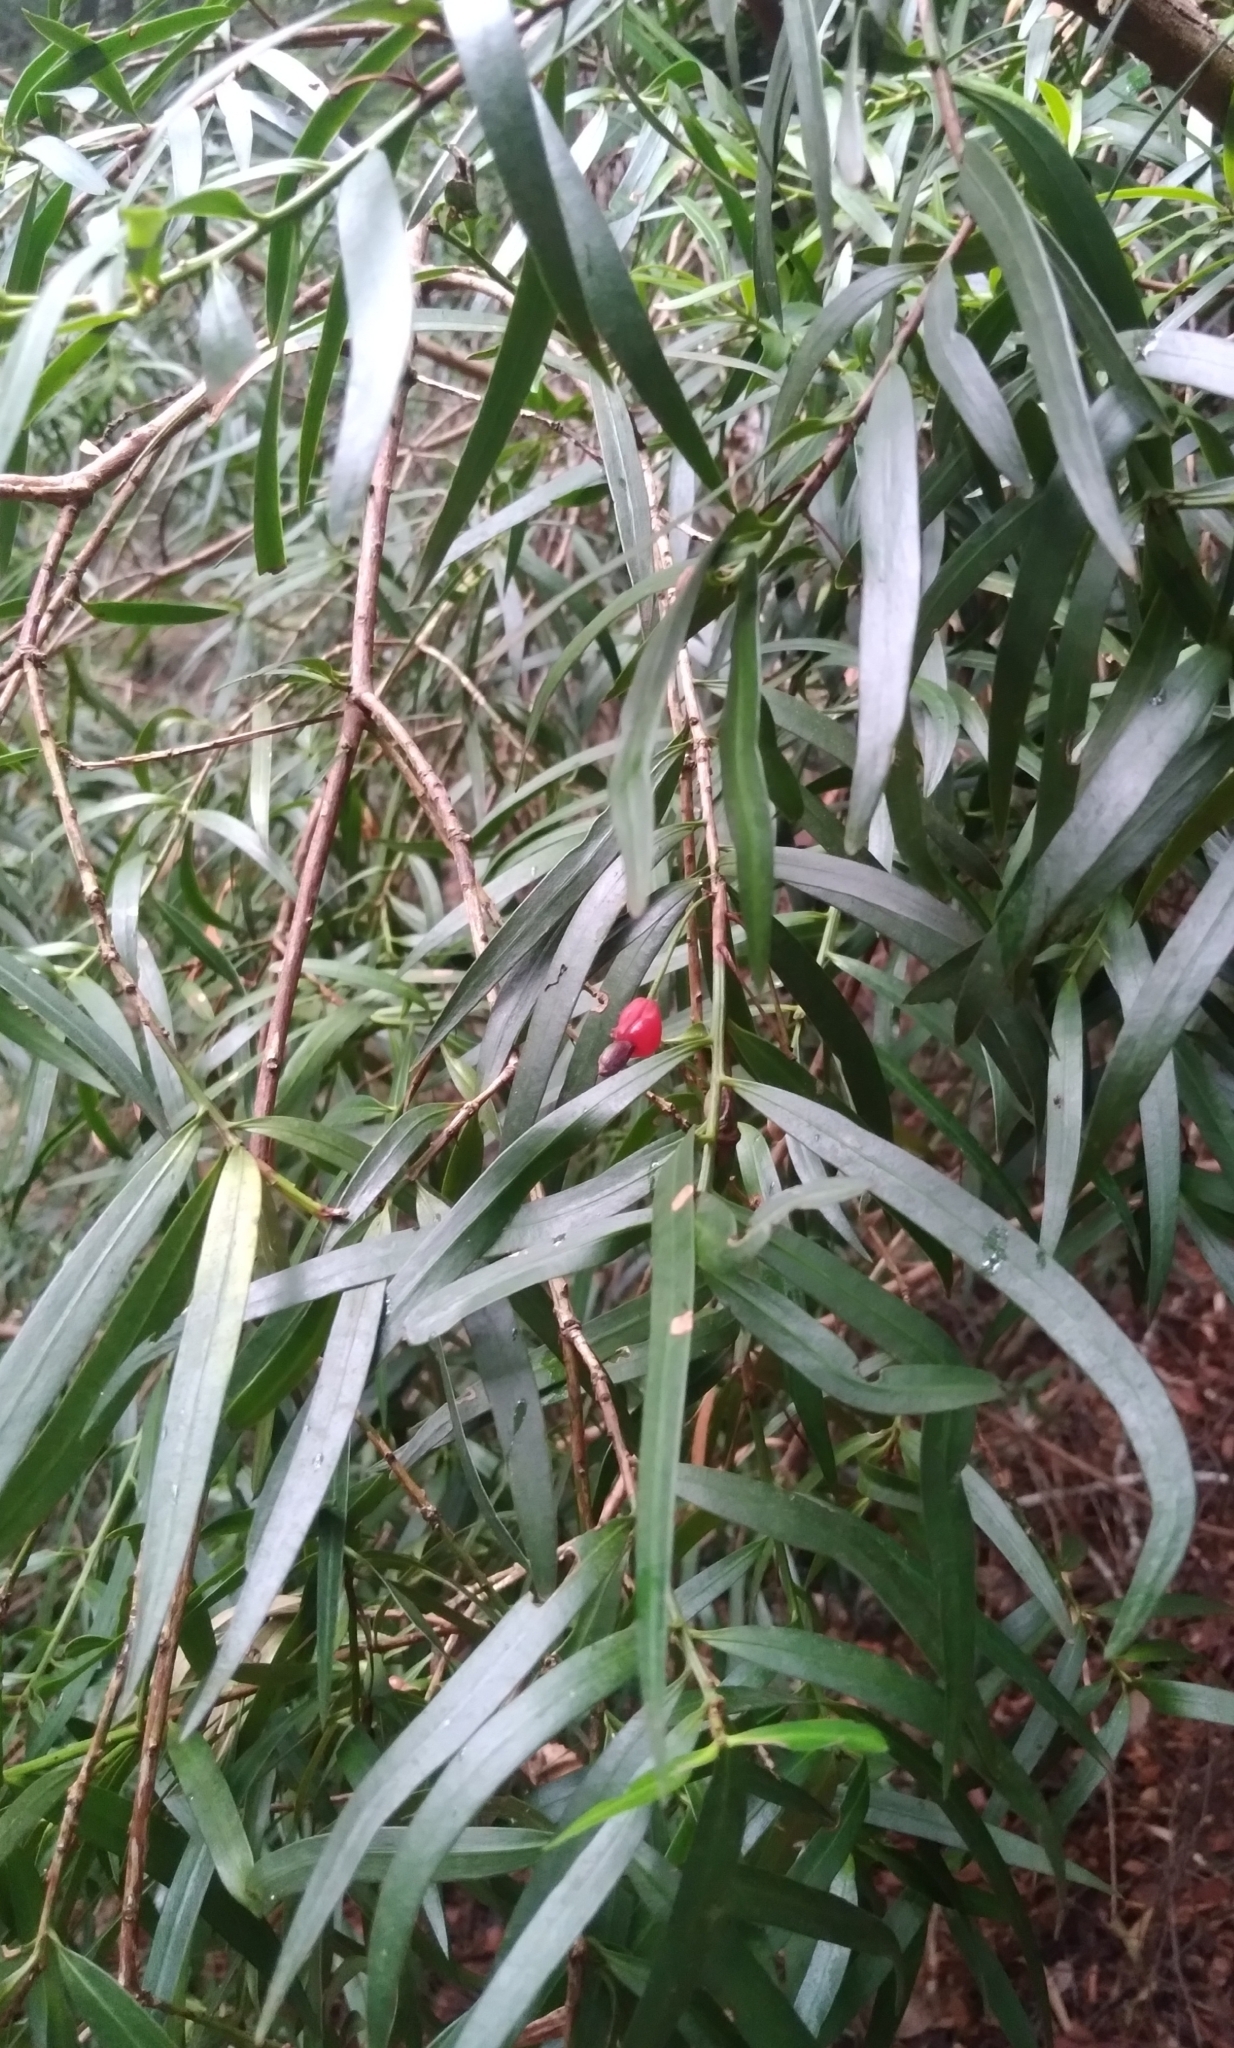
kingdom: Plantae
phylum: Tracheophyta
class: Pinopsida
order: Pinales
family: Podocarpaceae
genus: Podocarpus
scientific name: Podocarpus salignus
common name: Willow-leaf podocarp
